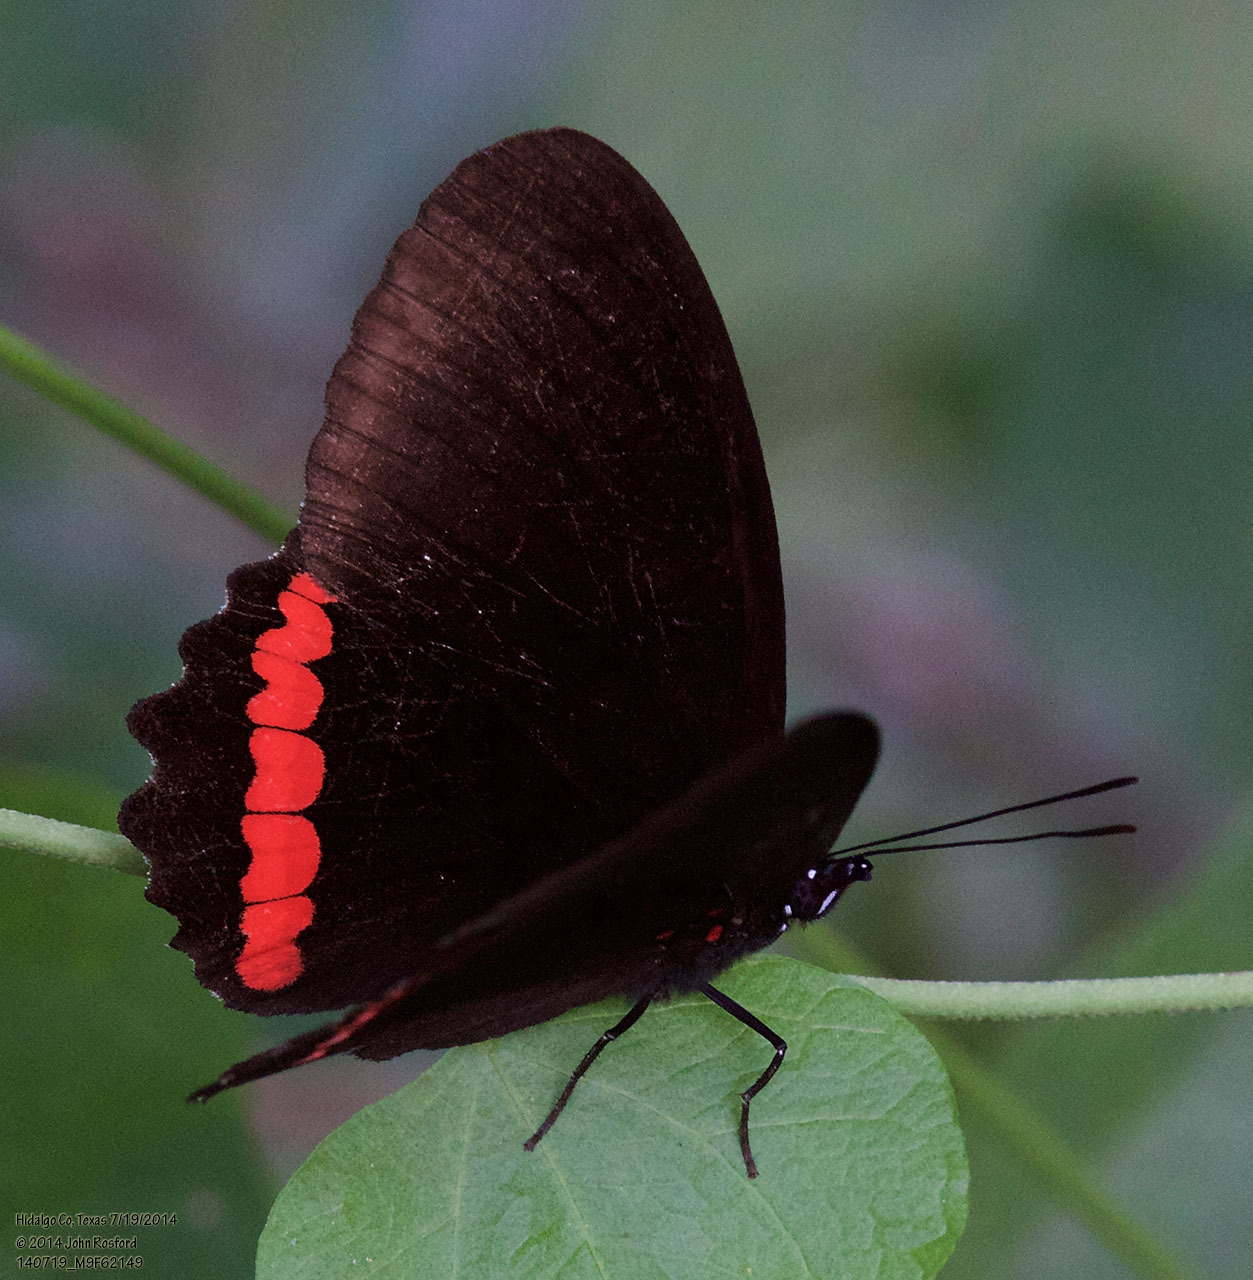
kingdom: Animalia
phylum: Arthropoda
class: Insecta
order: Lepidoptera
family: Nymphalidae
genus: Biblis
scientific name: Biblis aganisa
